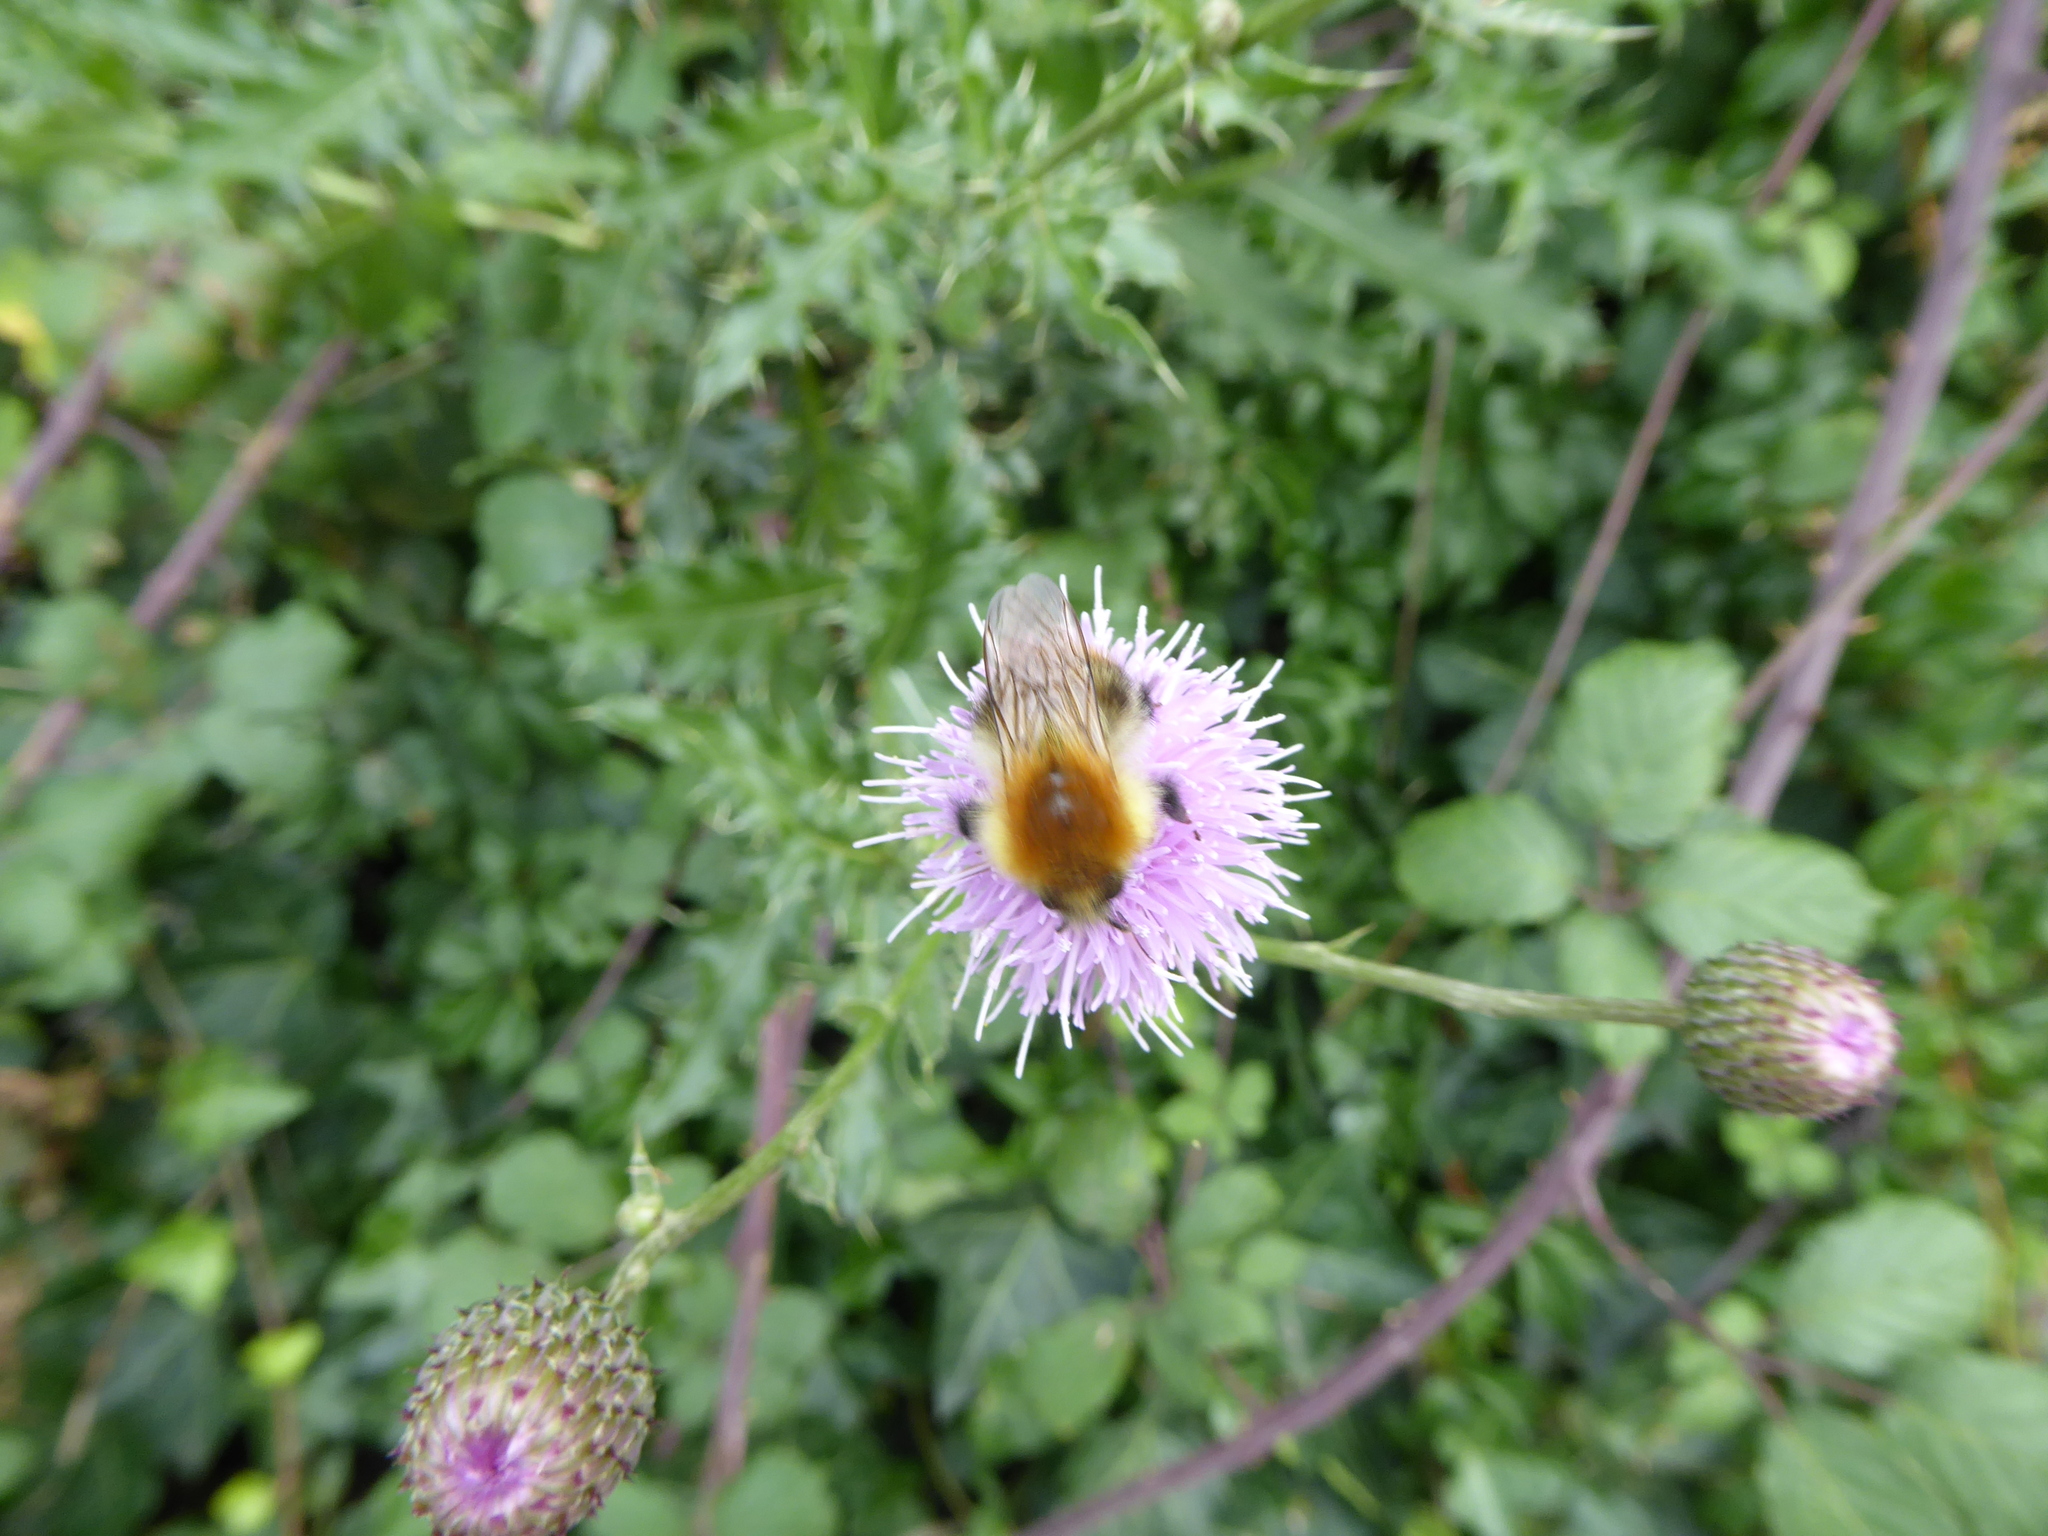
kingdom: Animalia
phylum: Arthropoda
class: Insecta
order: Hymenoptera
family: Apidae
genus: Bombus
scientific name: Bombus pascuorum
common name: Common carder bee
